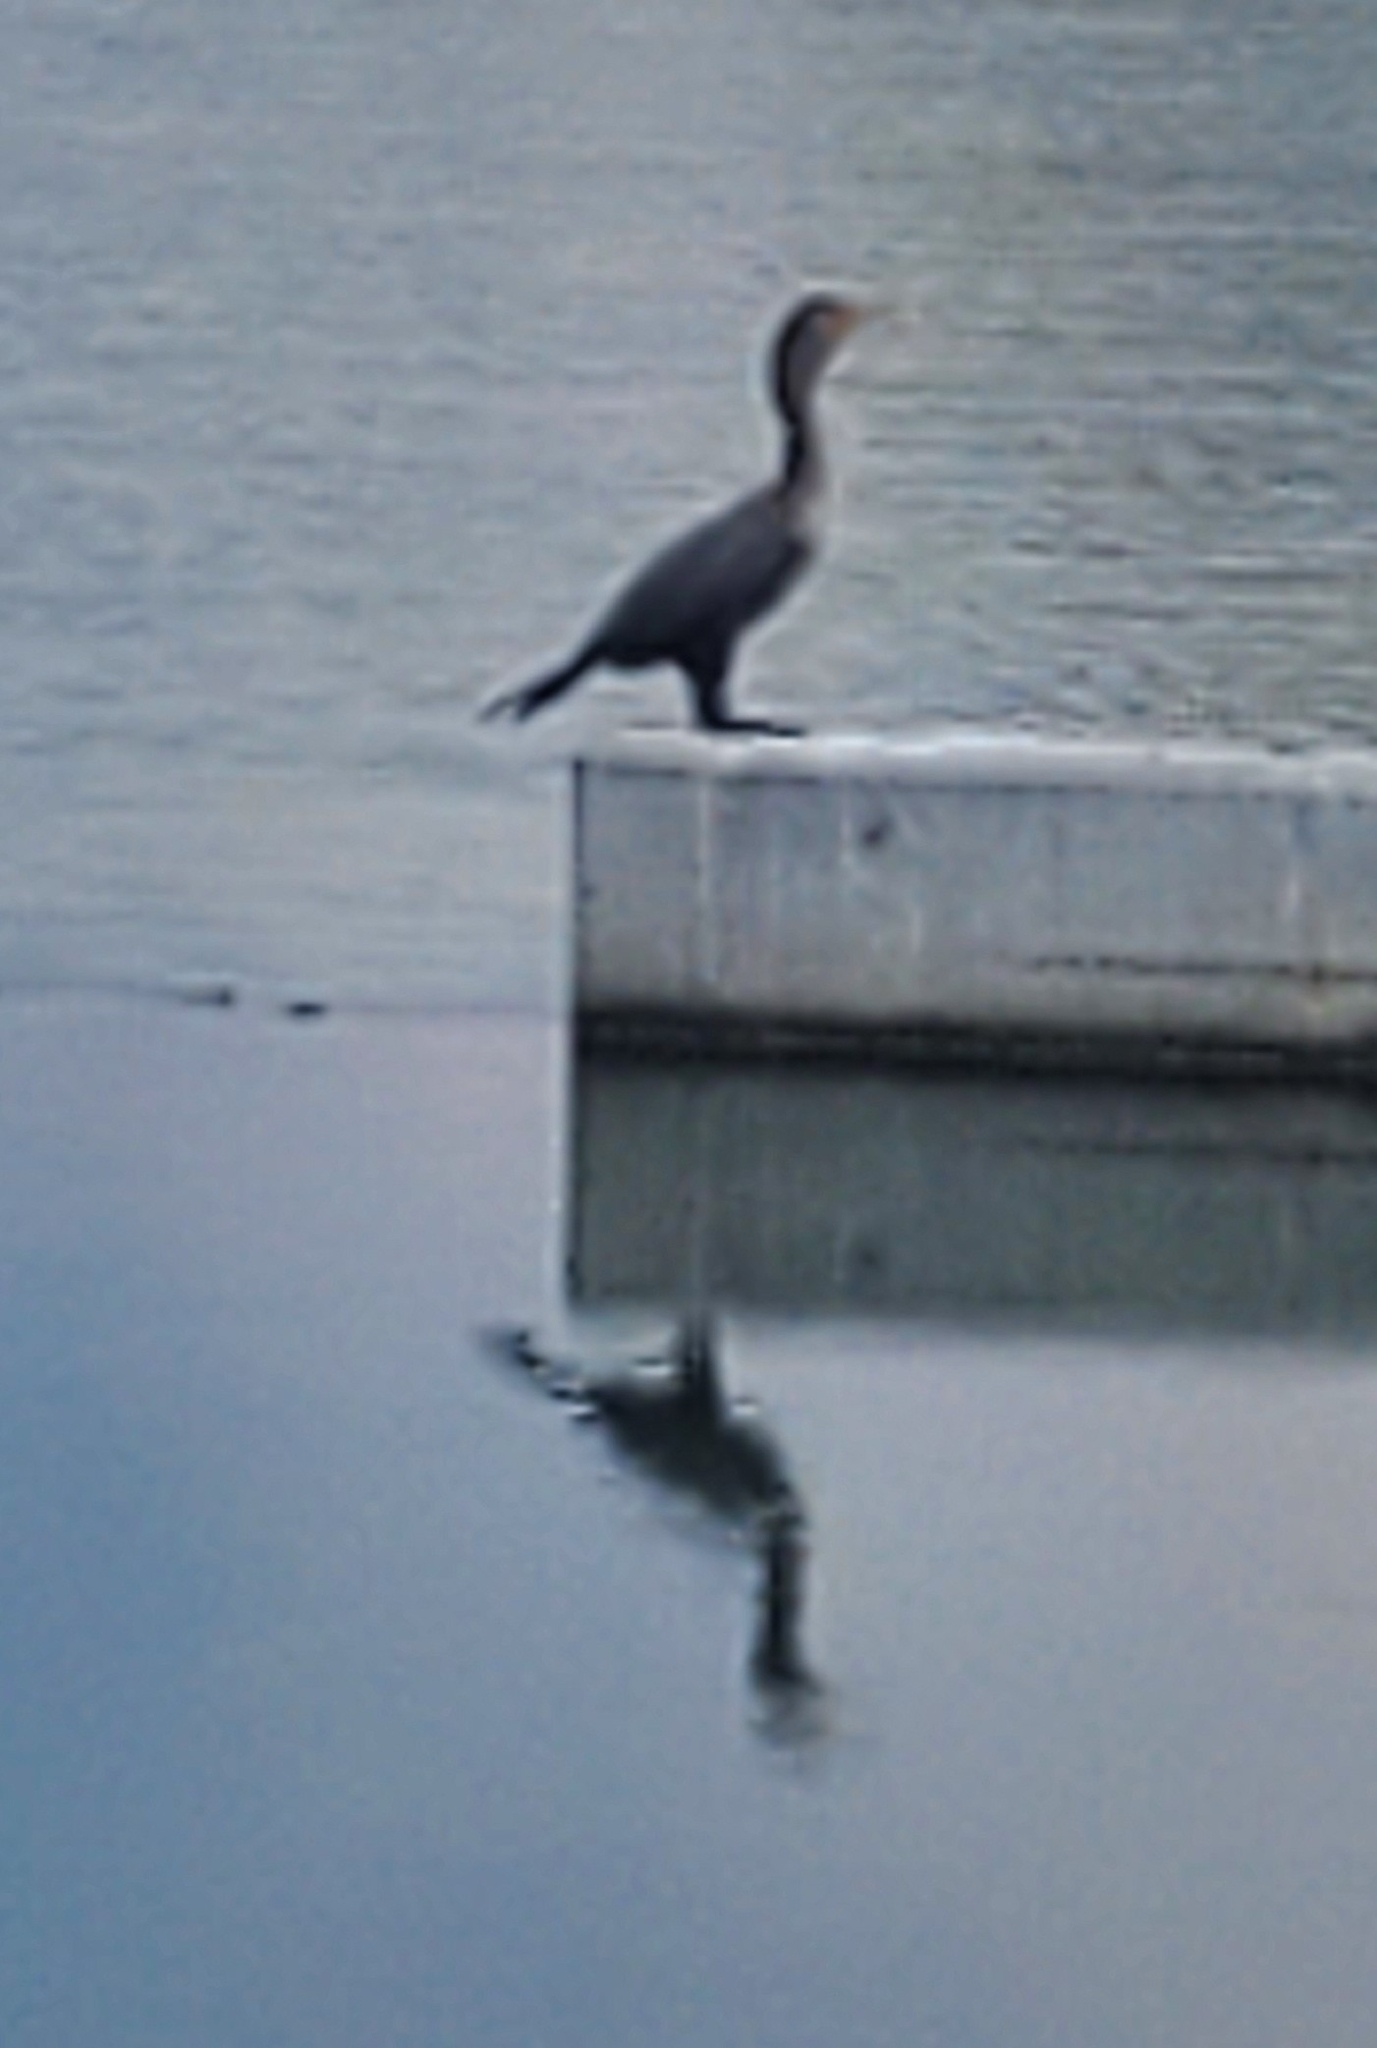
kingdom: Animalia
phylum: Chordata
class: Aves
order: Suliformes
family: Phalacrocoracidae
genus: Phalacrocorax
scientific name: Phalacrocorax auritus
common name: Double-crested cormorant
